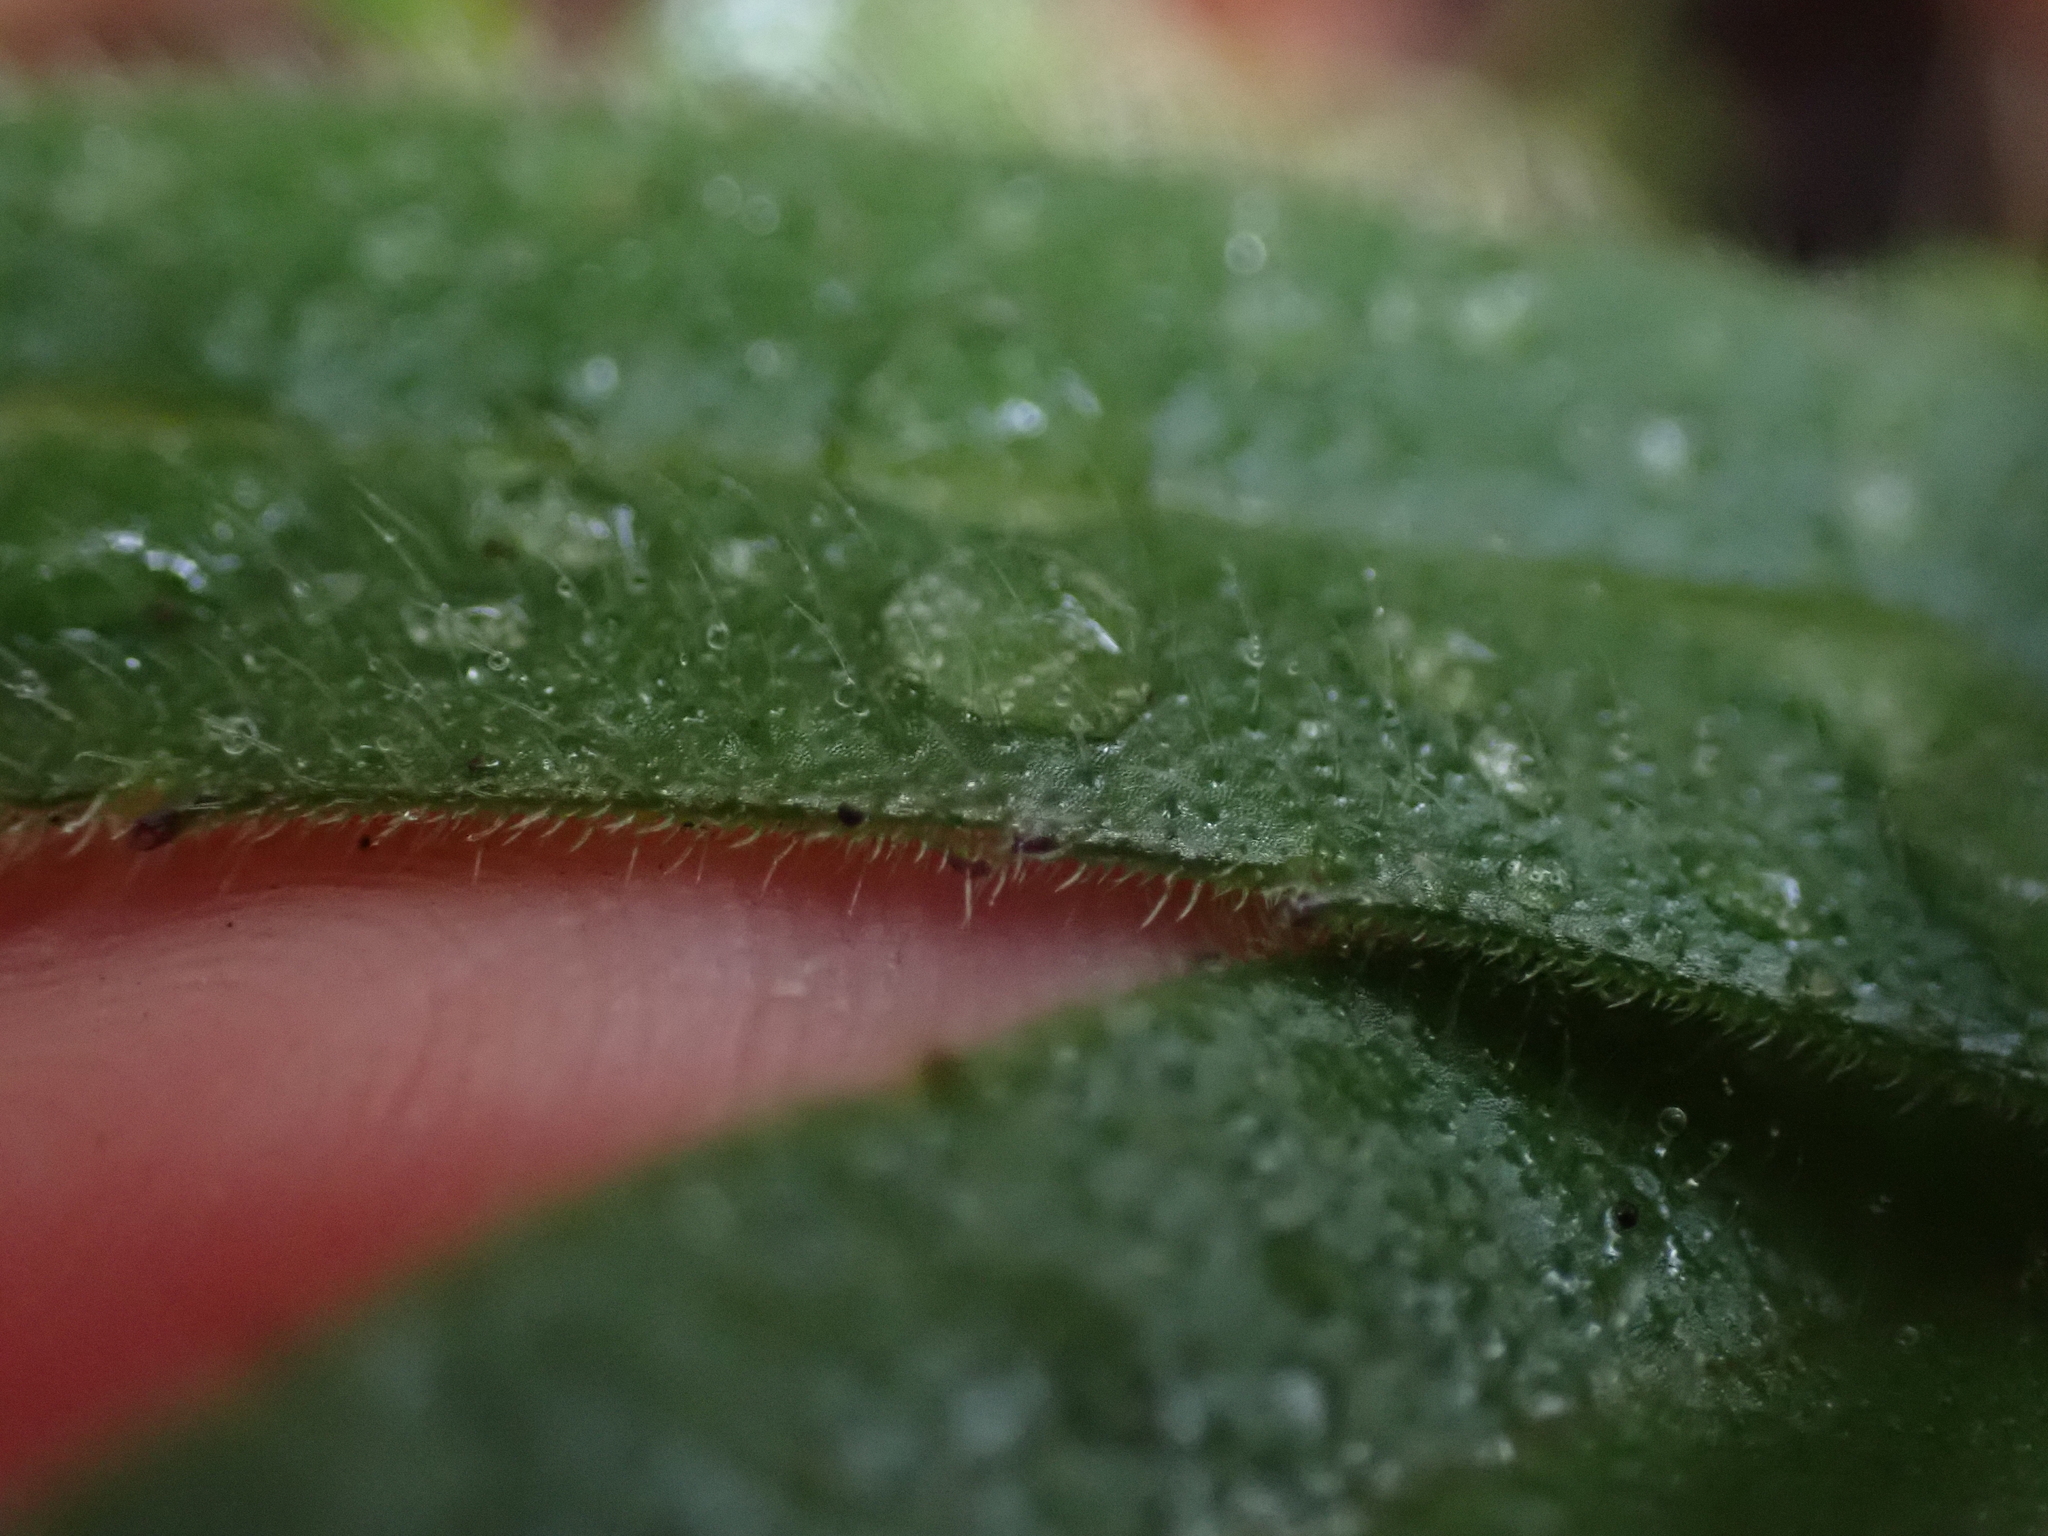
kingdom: Plantae
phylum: Tracheophyta
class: Magnoliopsida
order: Asterales
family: Asteraceae
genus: Anisocarpus
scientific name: Anisocarpus madioides
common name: Woodland madia
